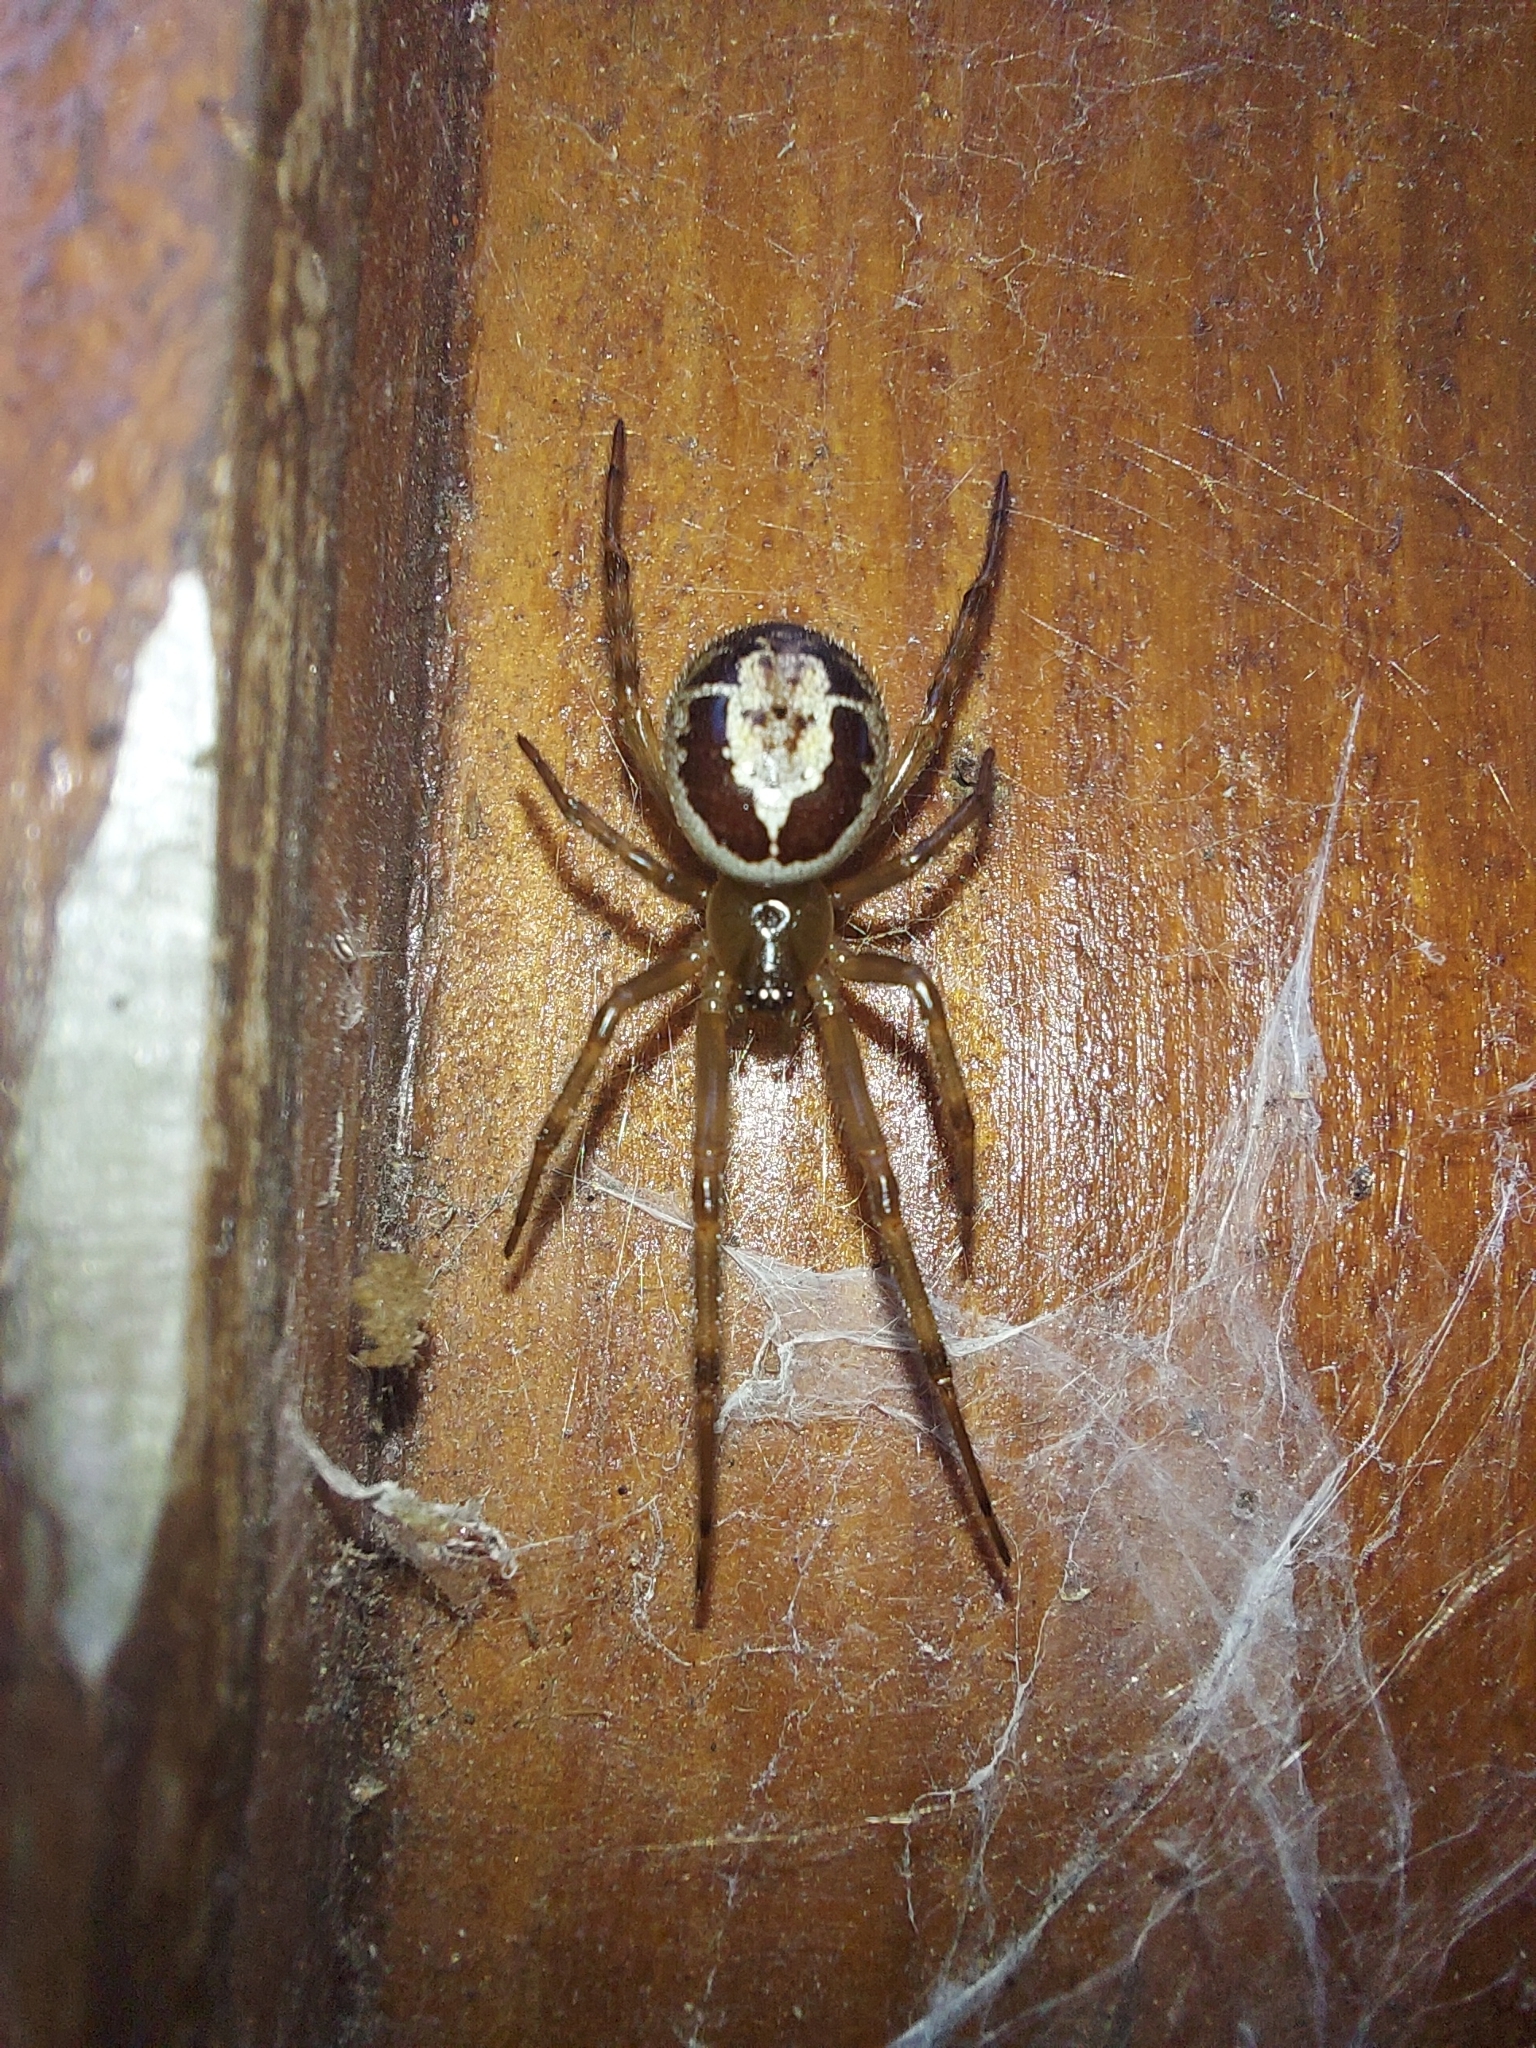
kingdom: Animalia
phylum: Arthropoda
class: Arachnida
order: Araneae
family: Theridiidae
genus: Steatoda
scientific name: Steatoda nobilis
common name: Cobweb weaver
